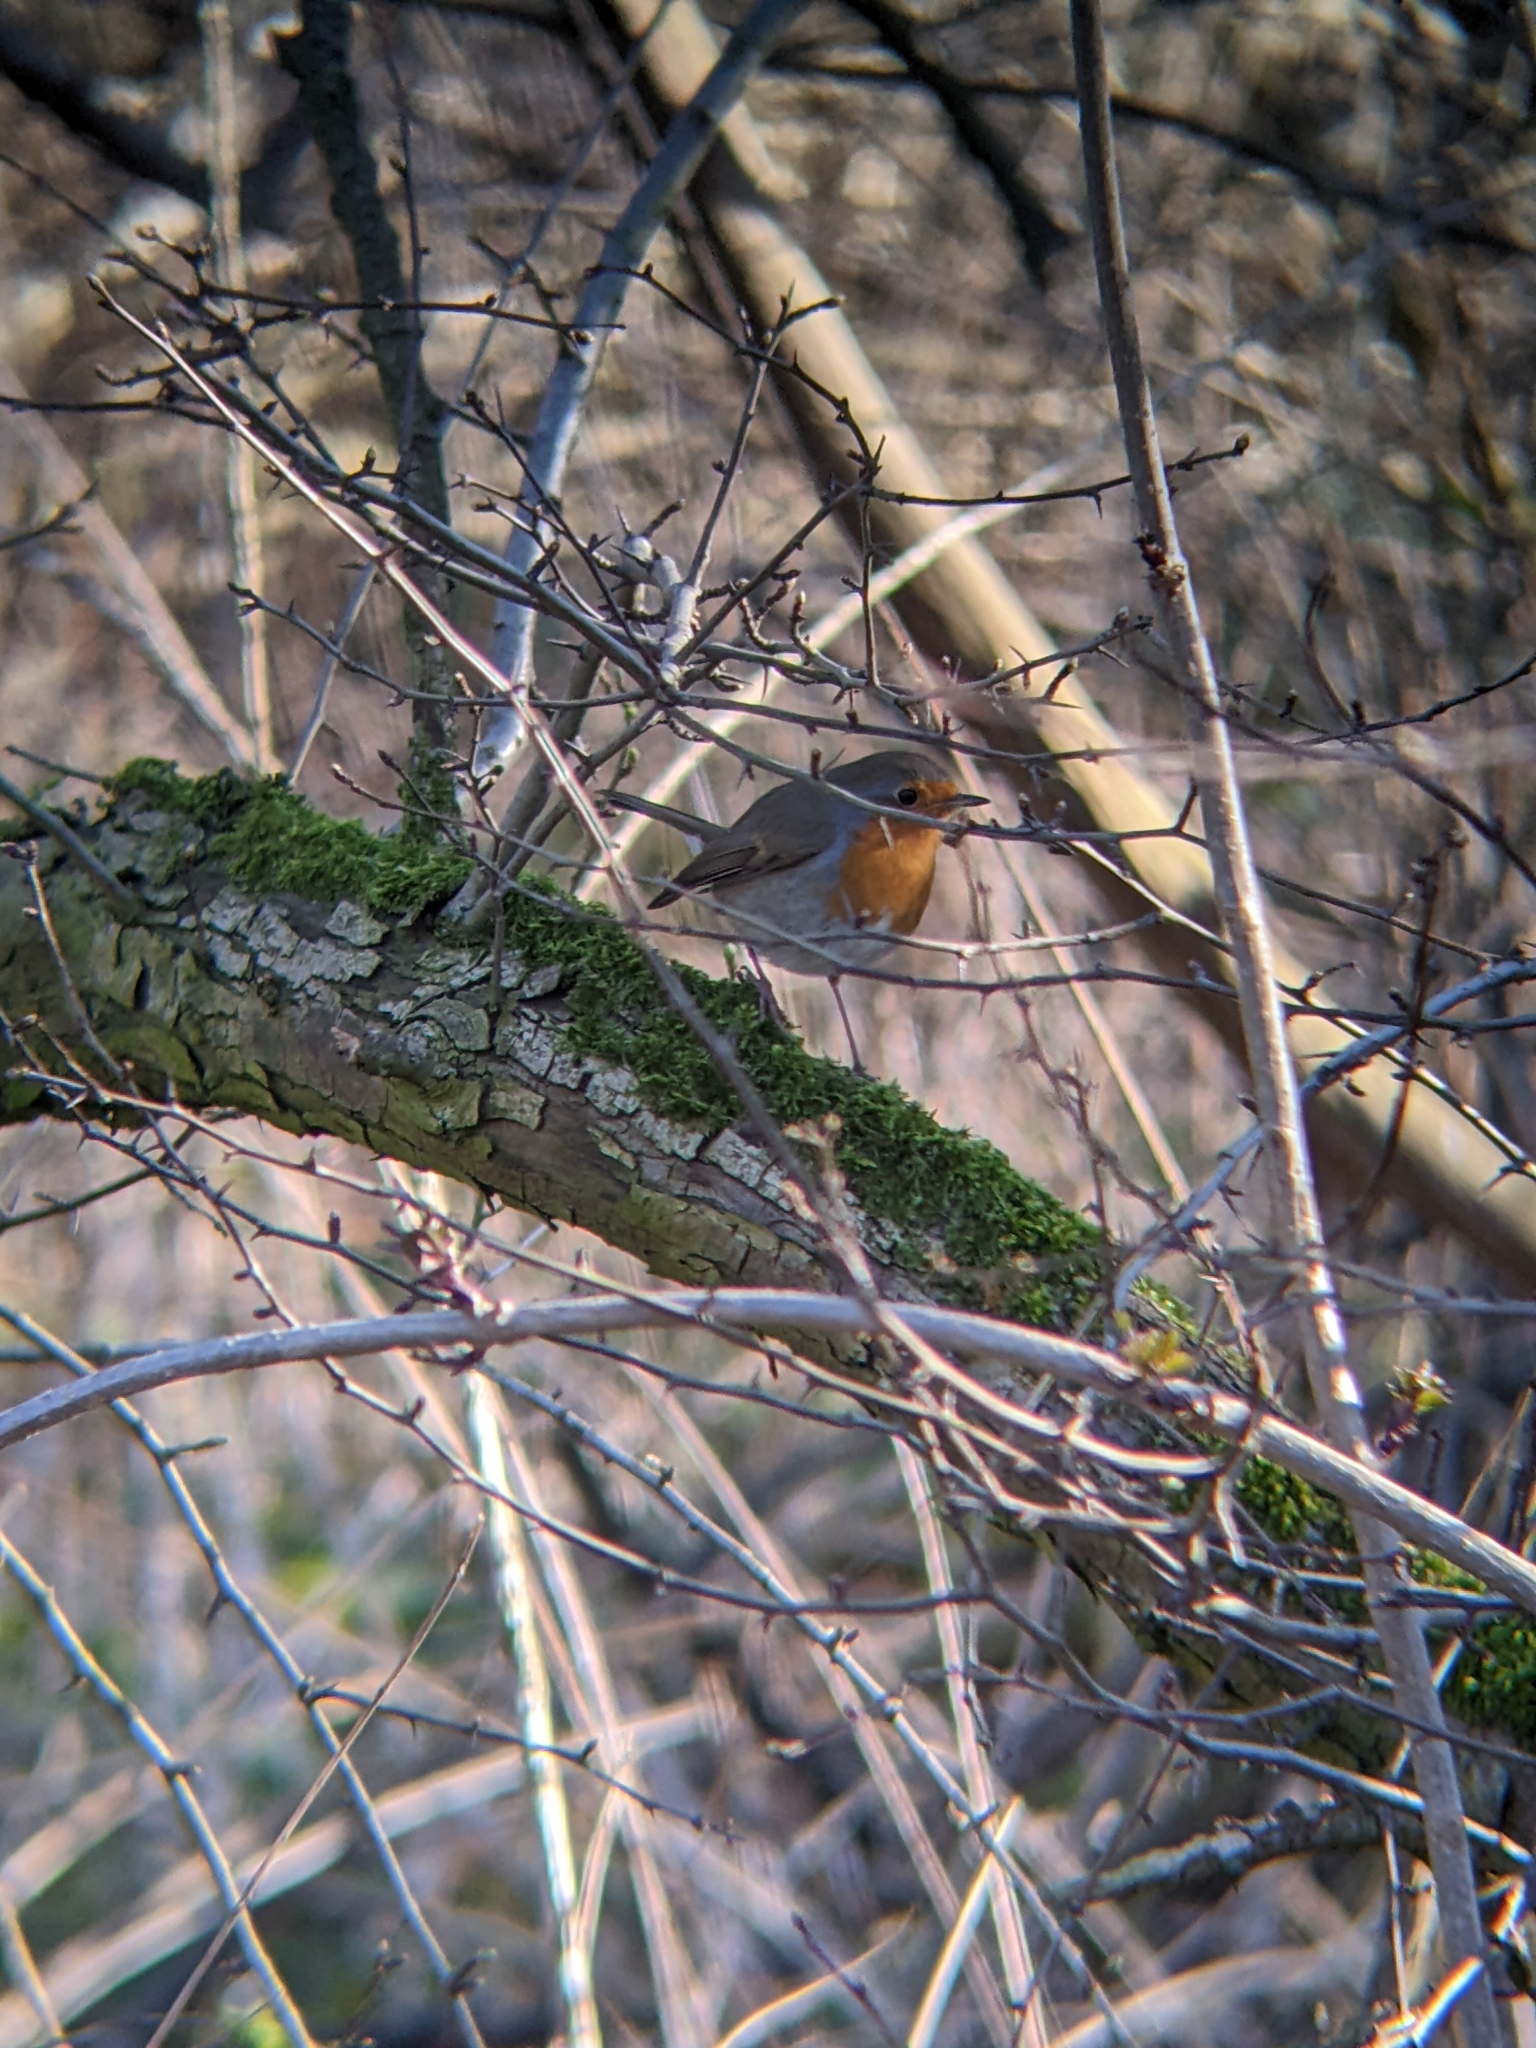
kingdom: Animalia
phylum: Chordata
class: Aves
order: Passeriformes
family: Muscicapidae
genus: Erithacus
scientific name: Erithacus rubecula
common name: European robin
